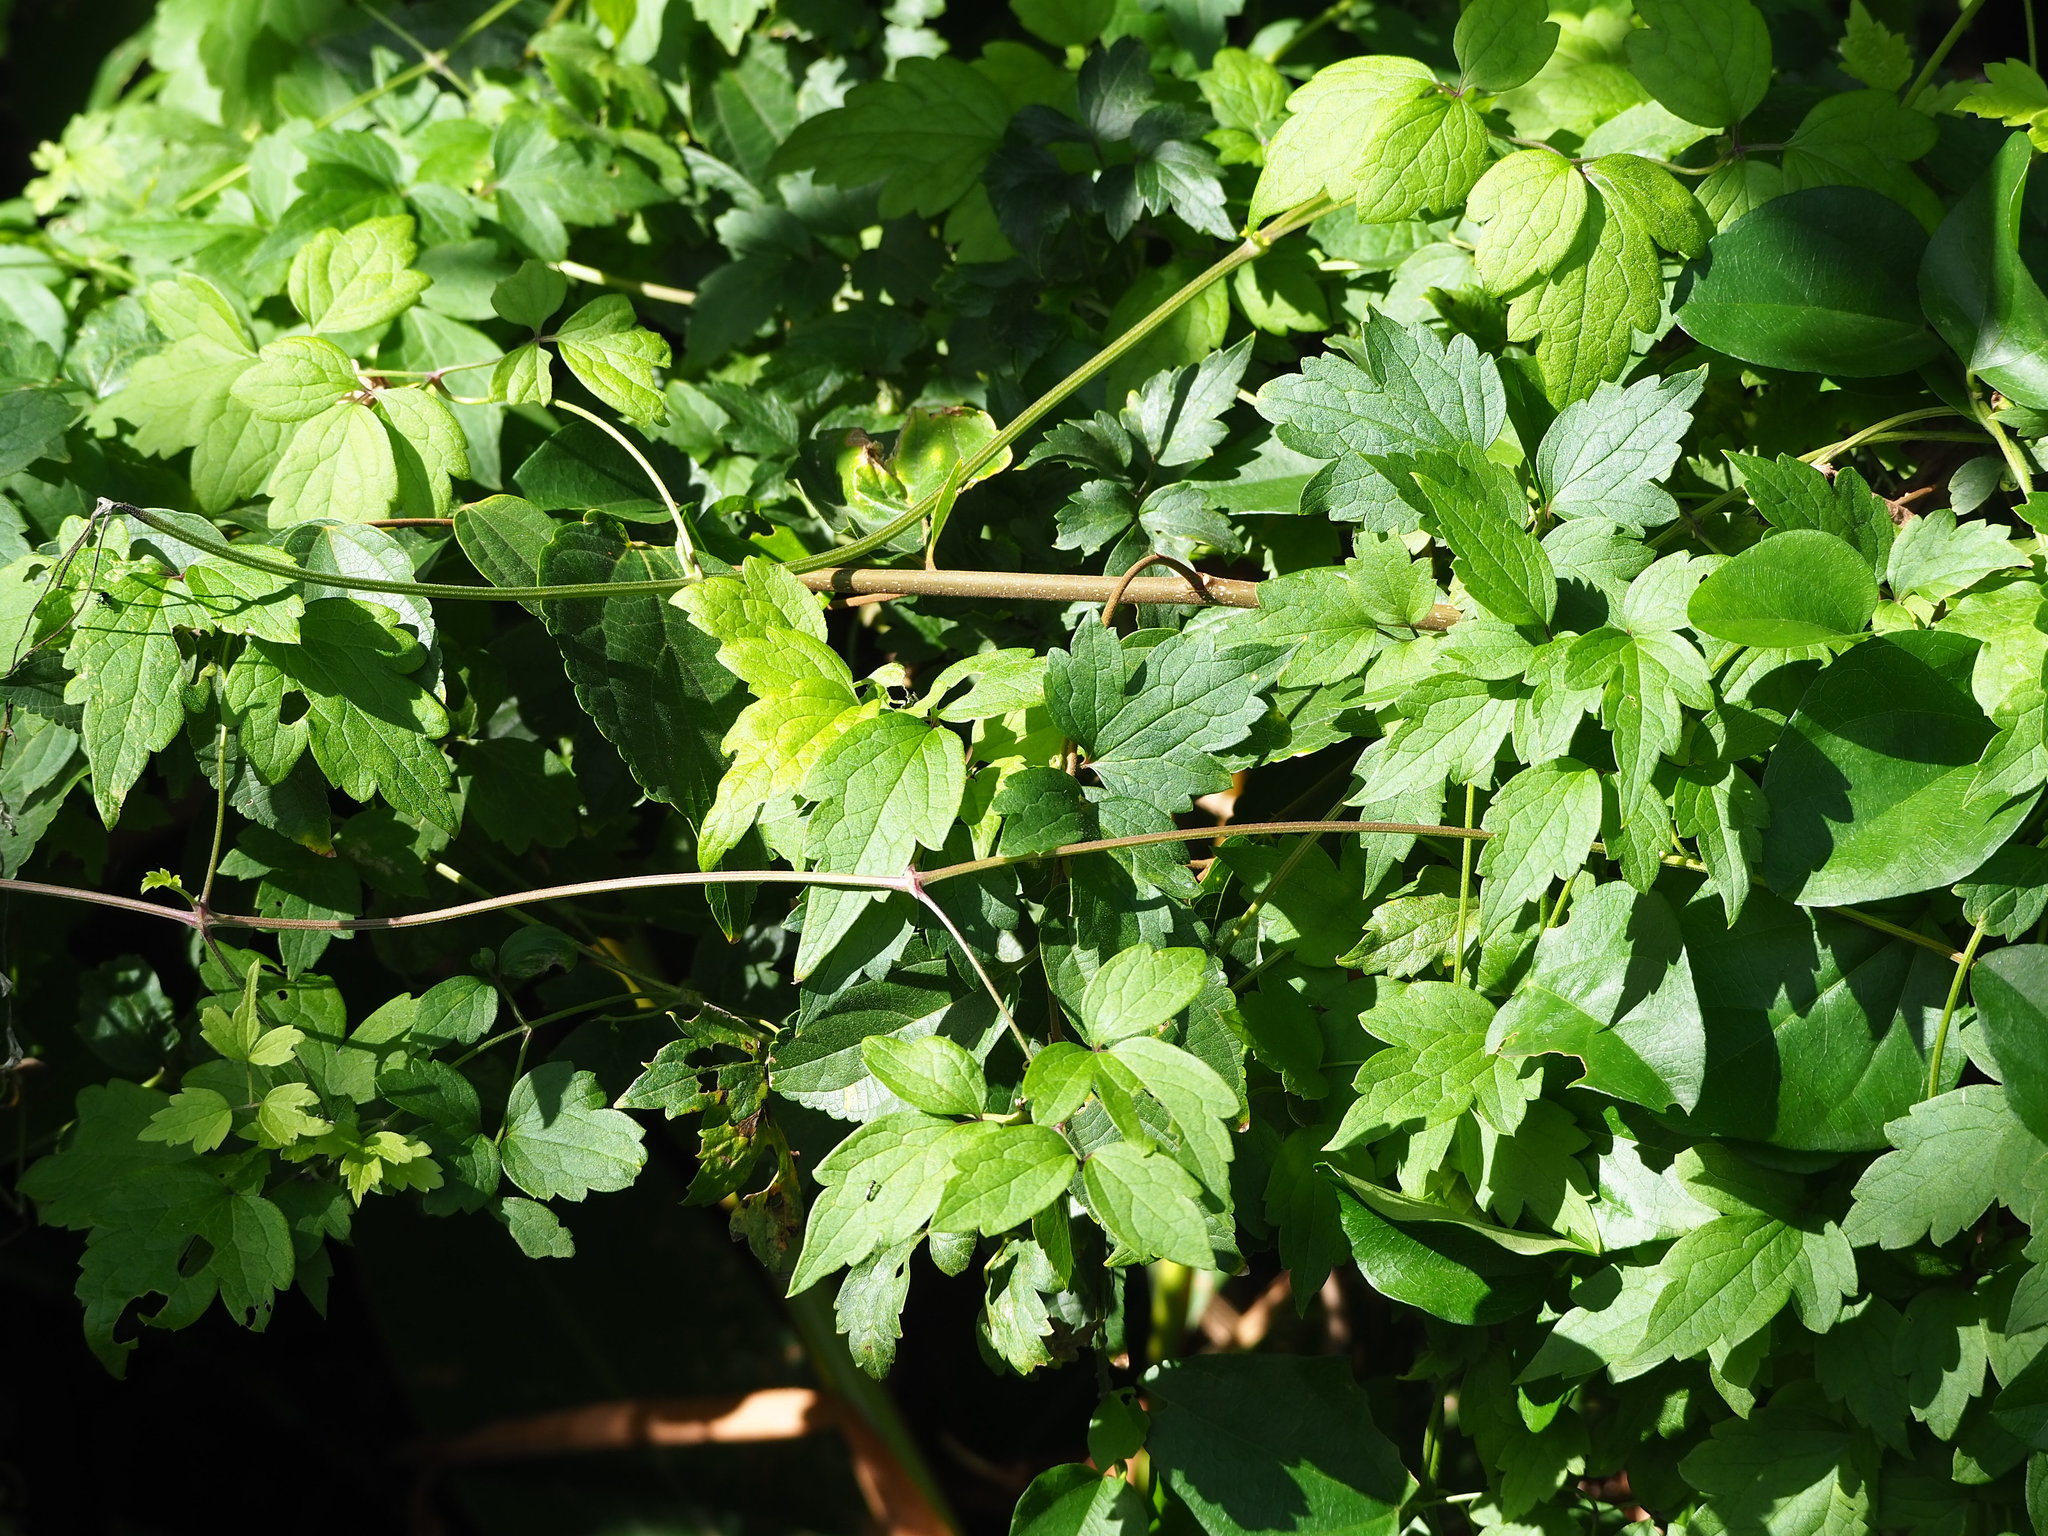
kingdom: Plantae
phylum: Tracheophyta
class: Magnoliopsida
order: Ranunculales
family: Ranunculaceae
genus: Clematis
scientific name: Clematis grata
